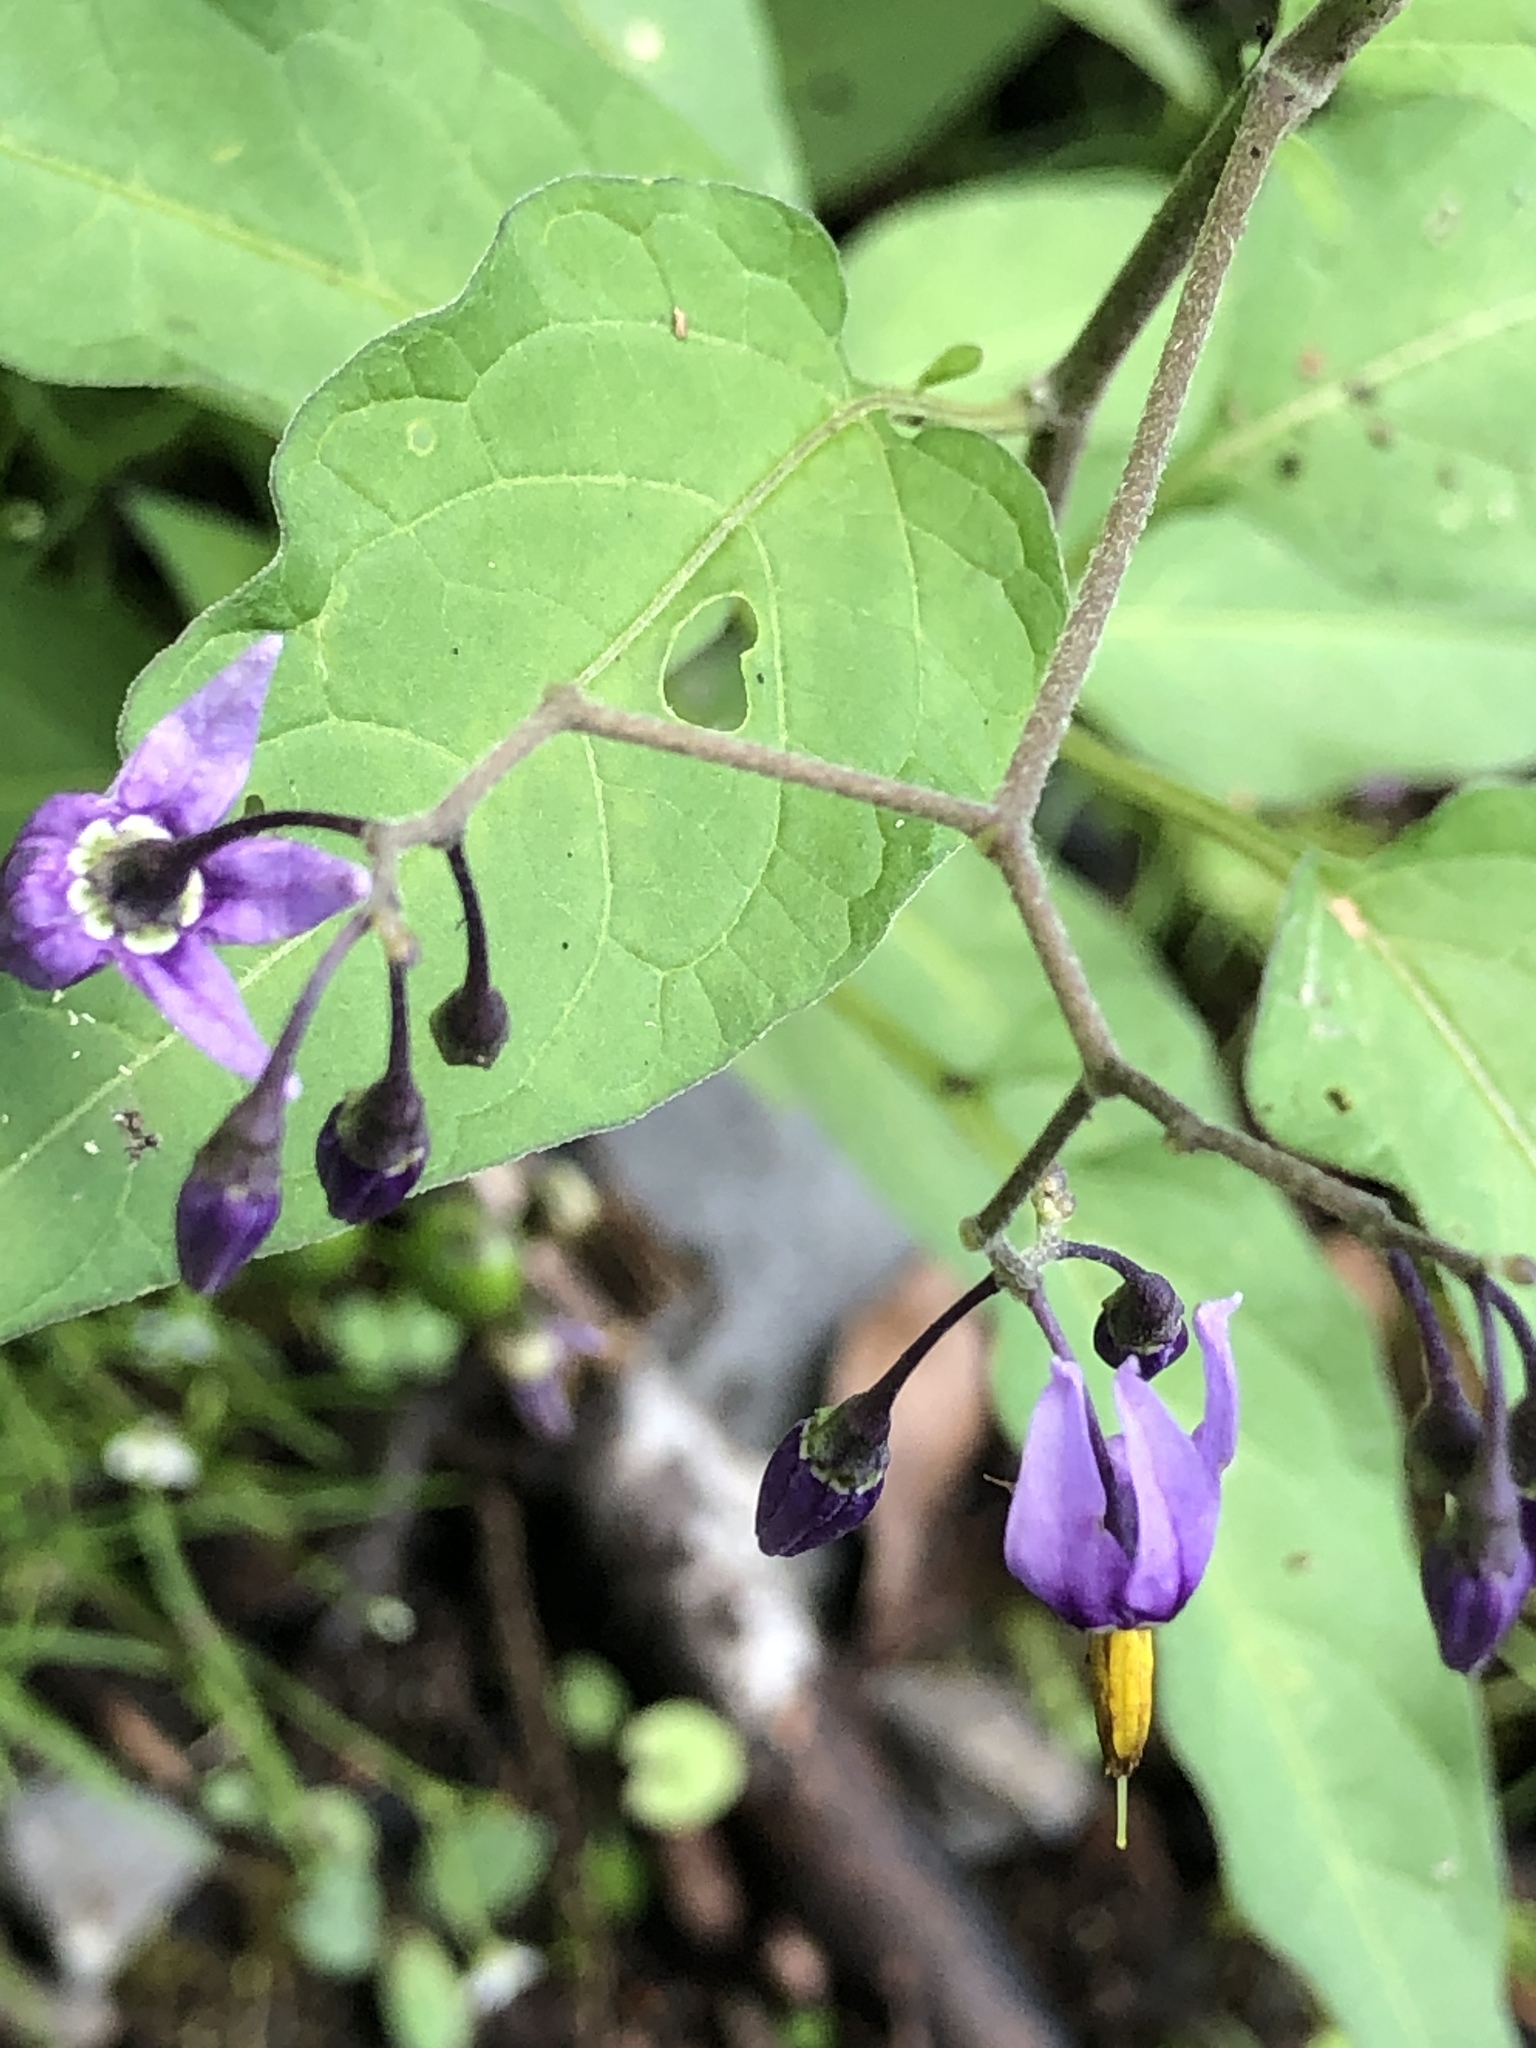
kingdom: Plantae
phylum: Tracheophyta
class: Magnoliopsida
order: Solanales
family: Solanaceae
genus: Solanum
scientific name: Solanum dulcamara
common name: Climbing nightshade
